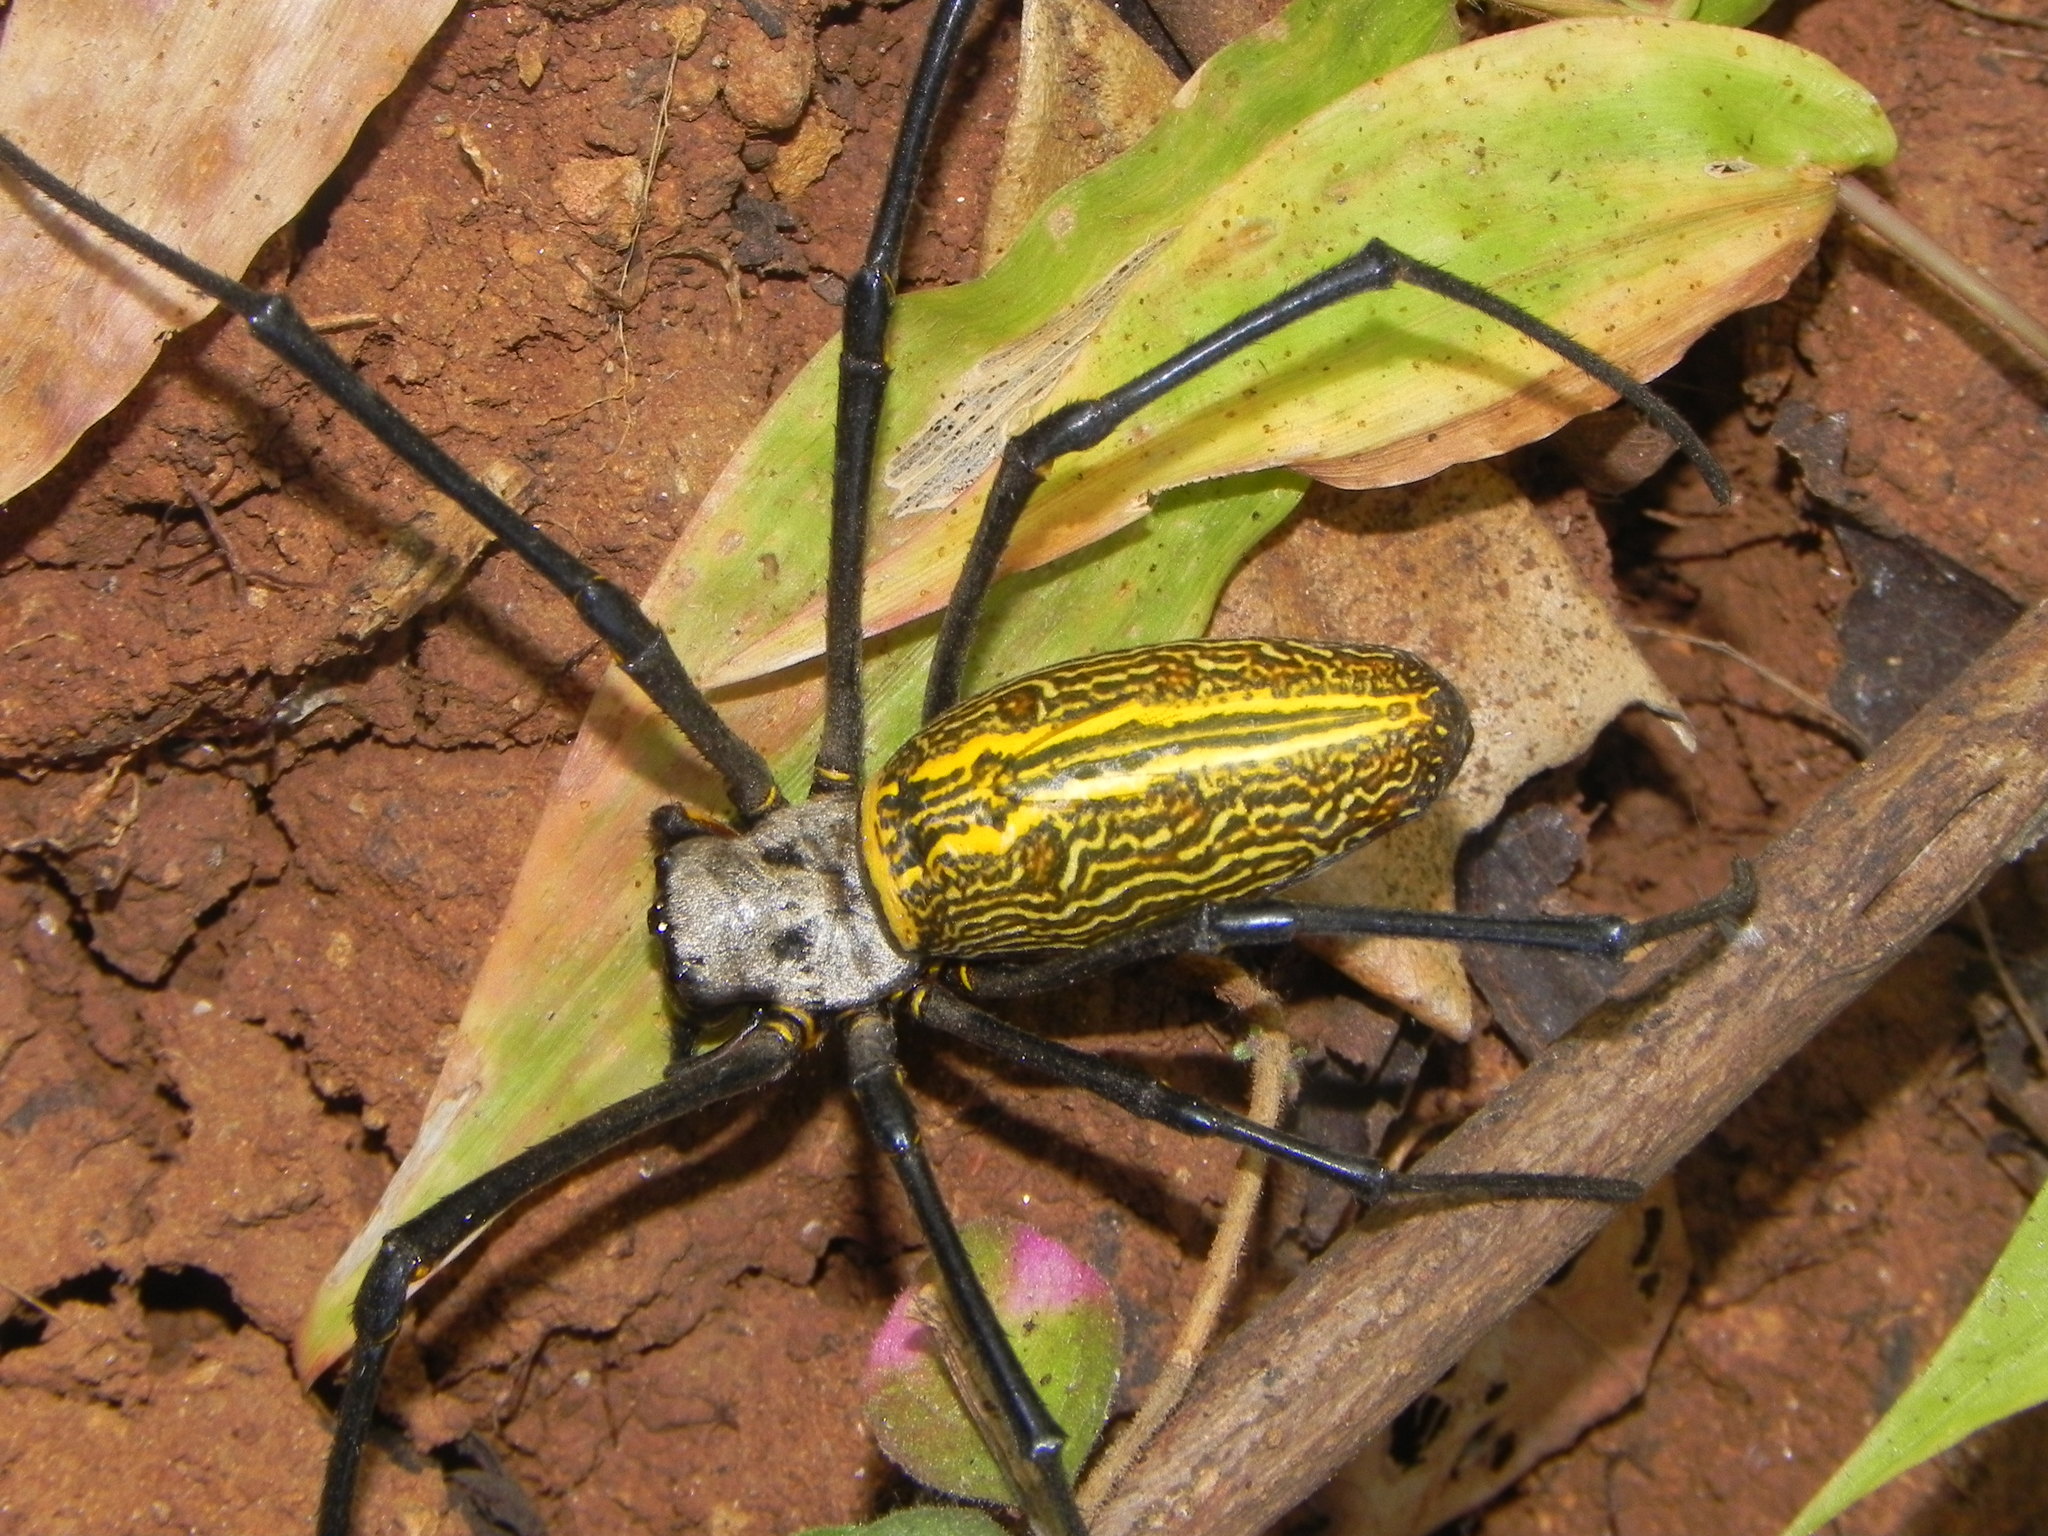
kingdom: Animalia
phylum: Arthropoda
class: Arachnida
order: Araneae
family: Araneidae
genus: Nephila
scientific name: Nephila pilipes
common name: Giant golden orb weaver
